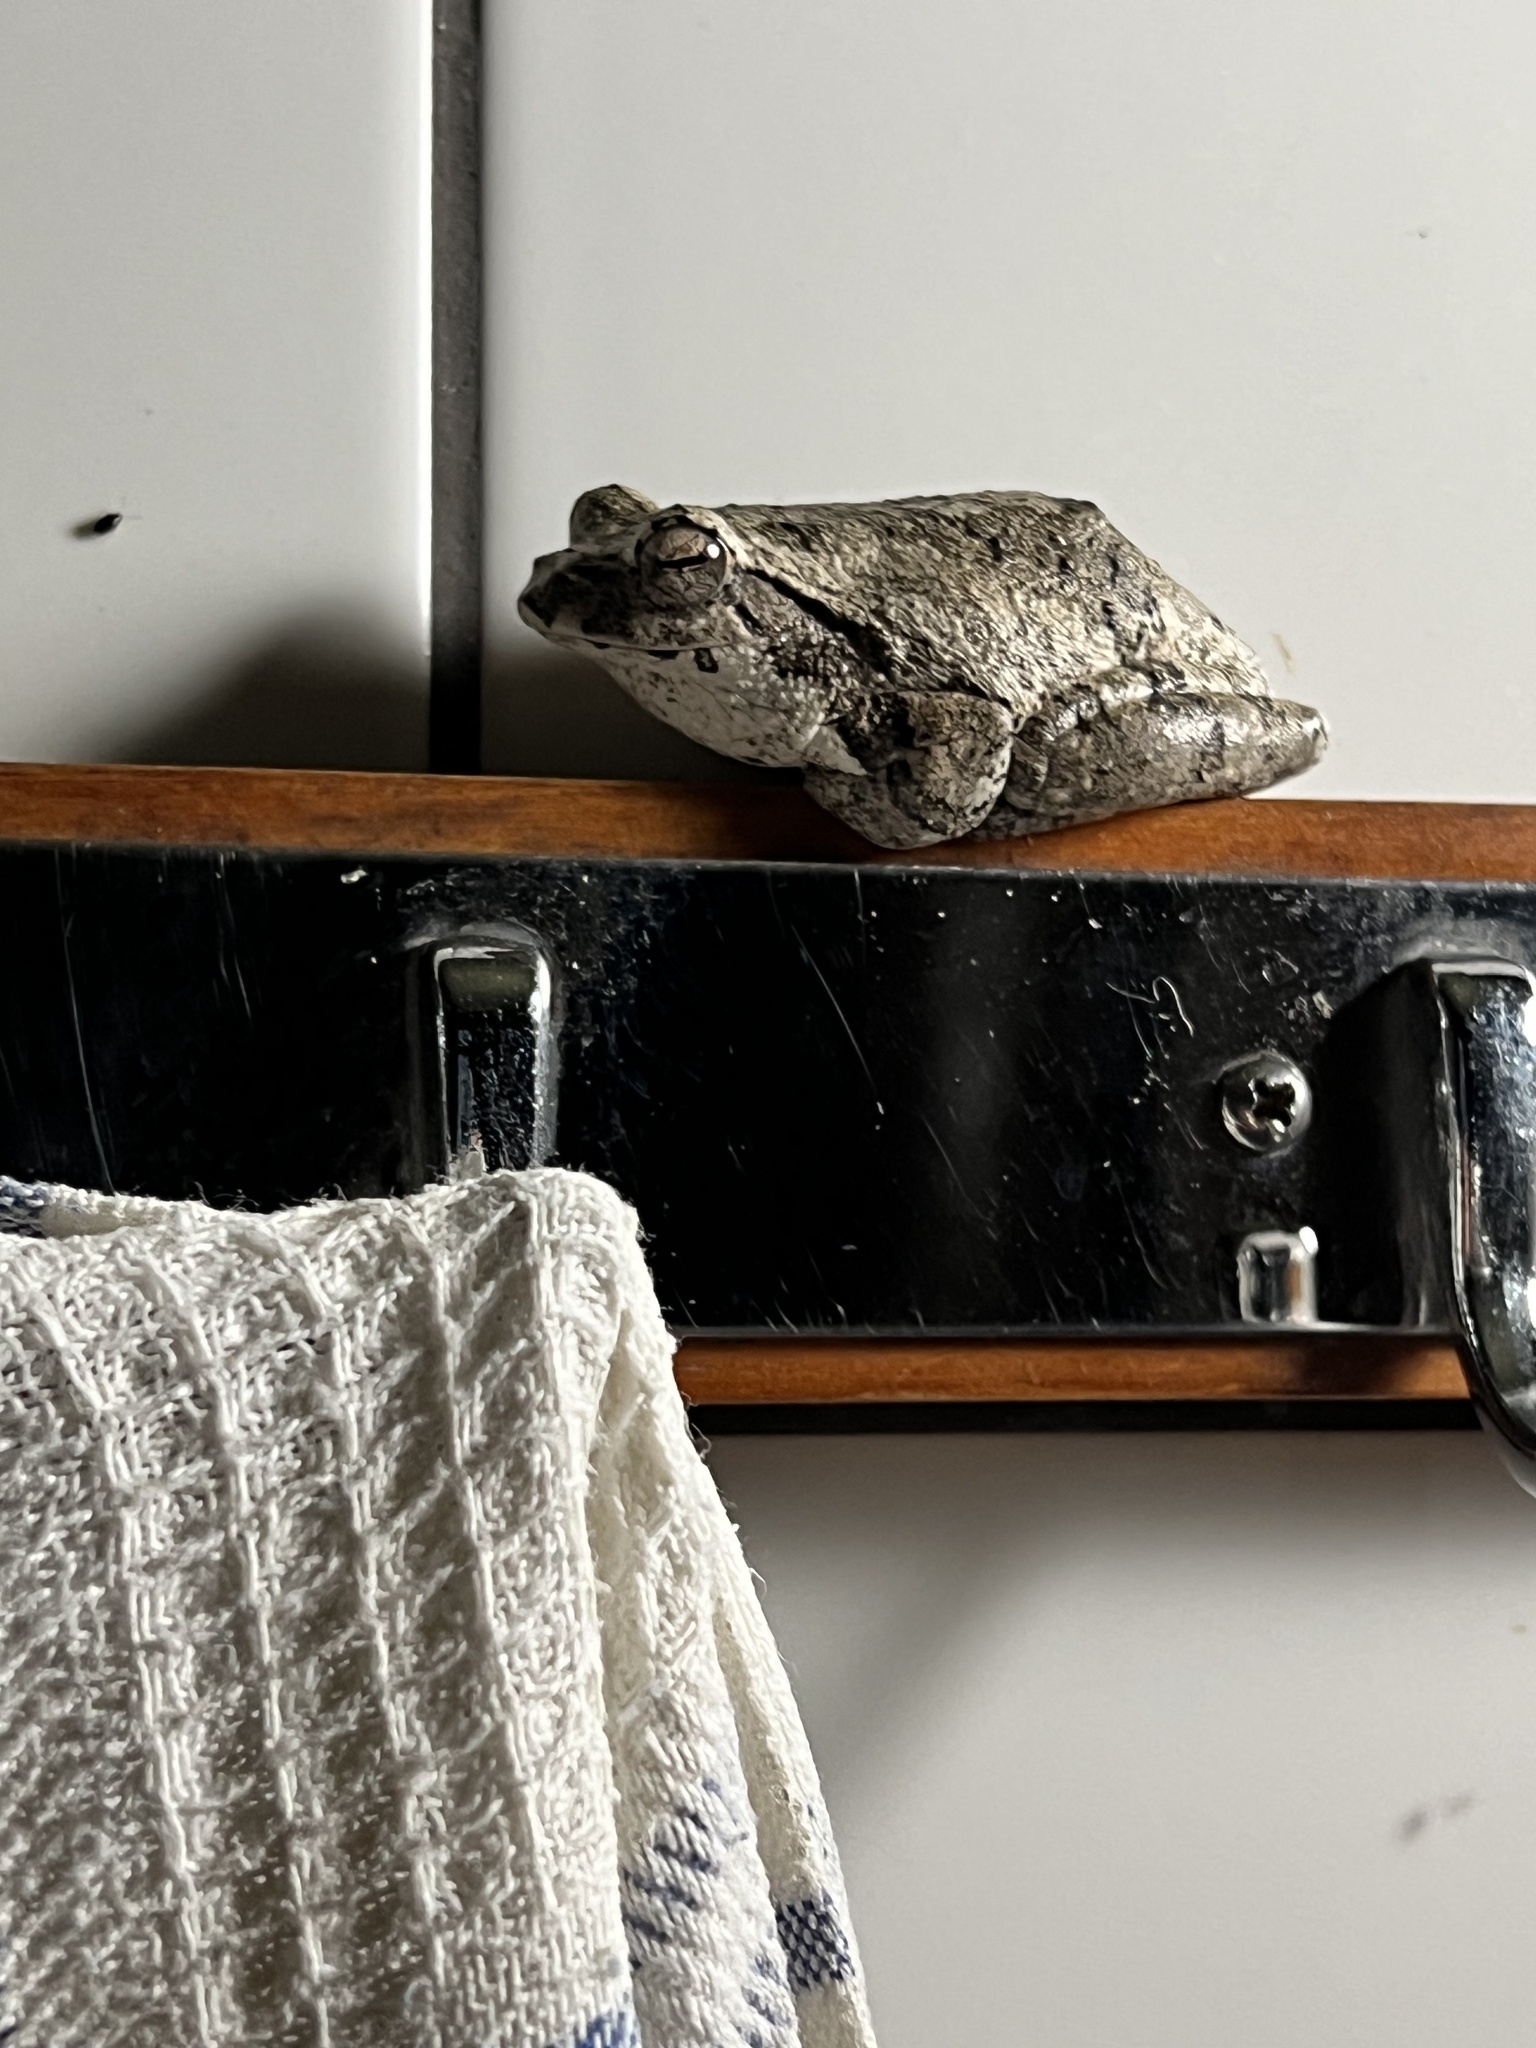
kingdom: Animalia
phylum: Chordata
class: Amphibia
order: Anura
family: Rhacophoridae
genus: Chiromantis
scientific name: Chiromantis xerampelina
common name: African gray treefrog
